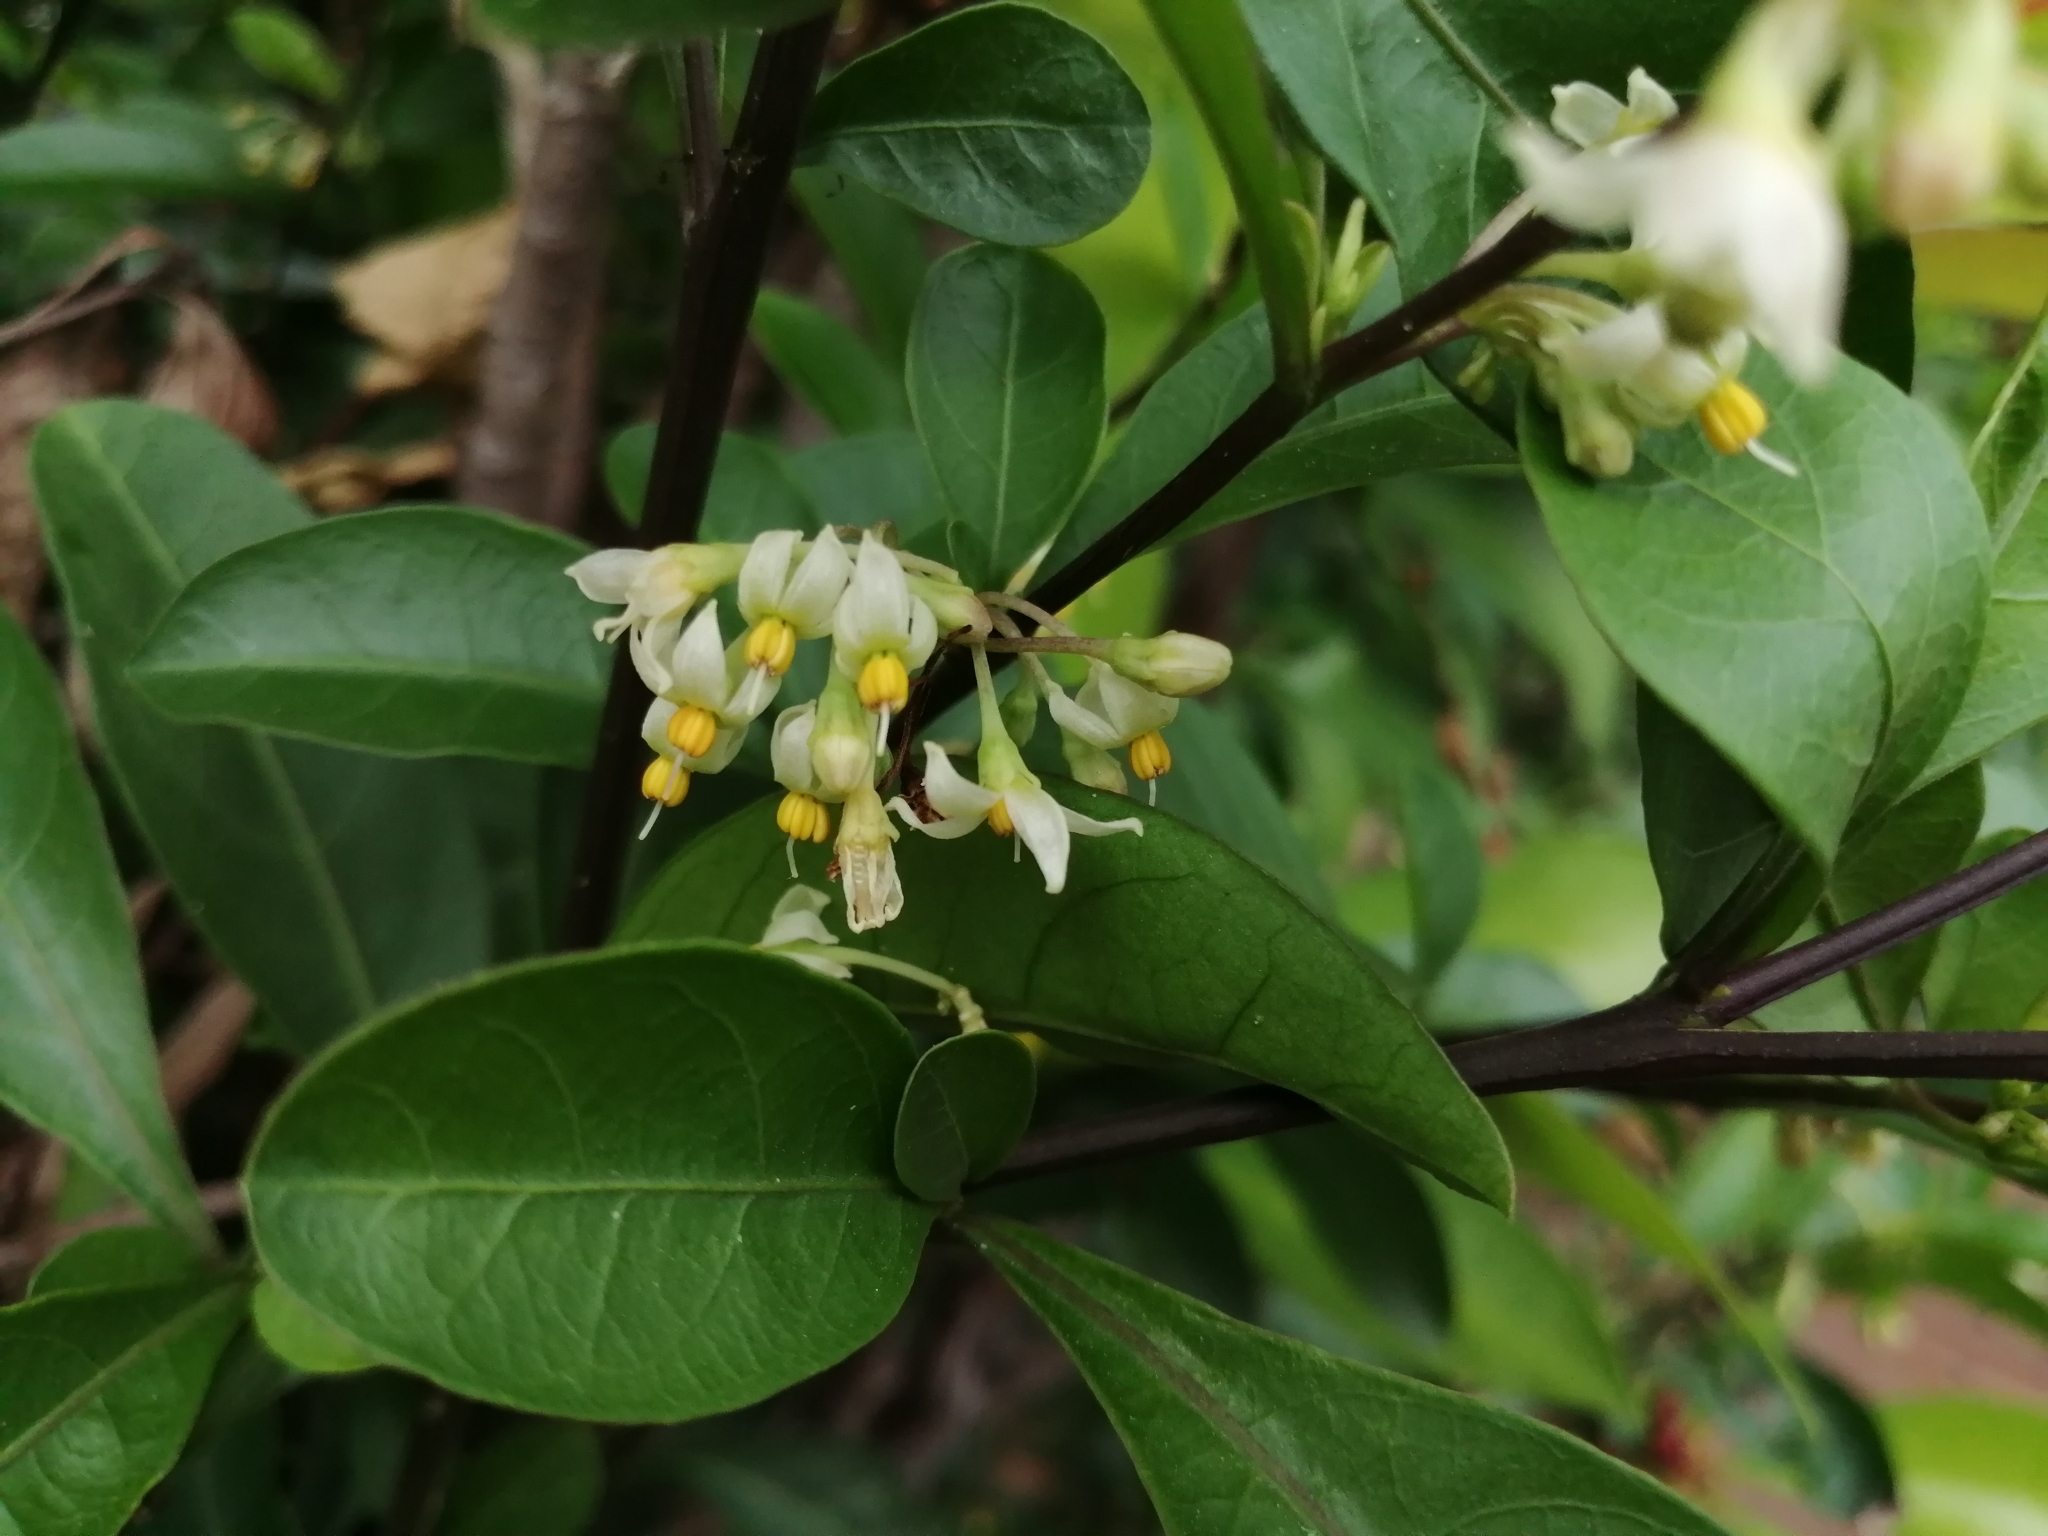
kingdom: Plantae
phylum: Tracheophyta
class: Magnoliopsida
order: Solanales
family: Solanaceae
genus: Solanum
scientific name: Solanum diphyllum
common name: Twoleaf nightshade
